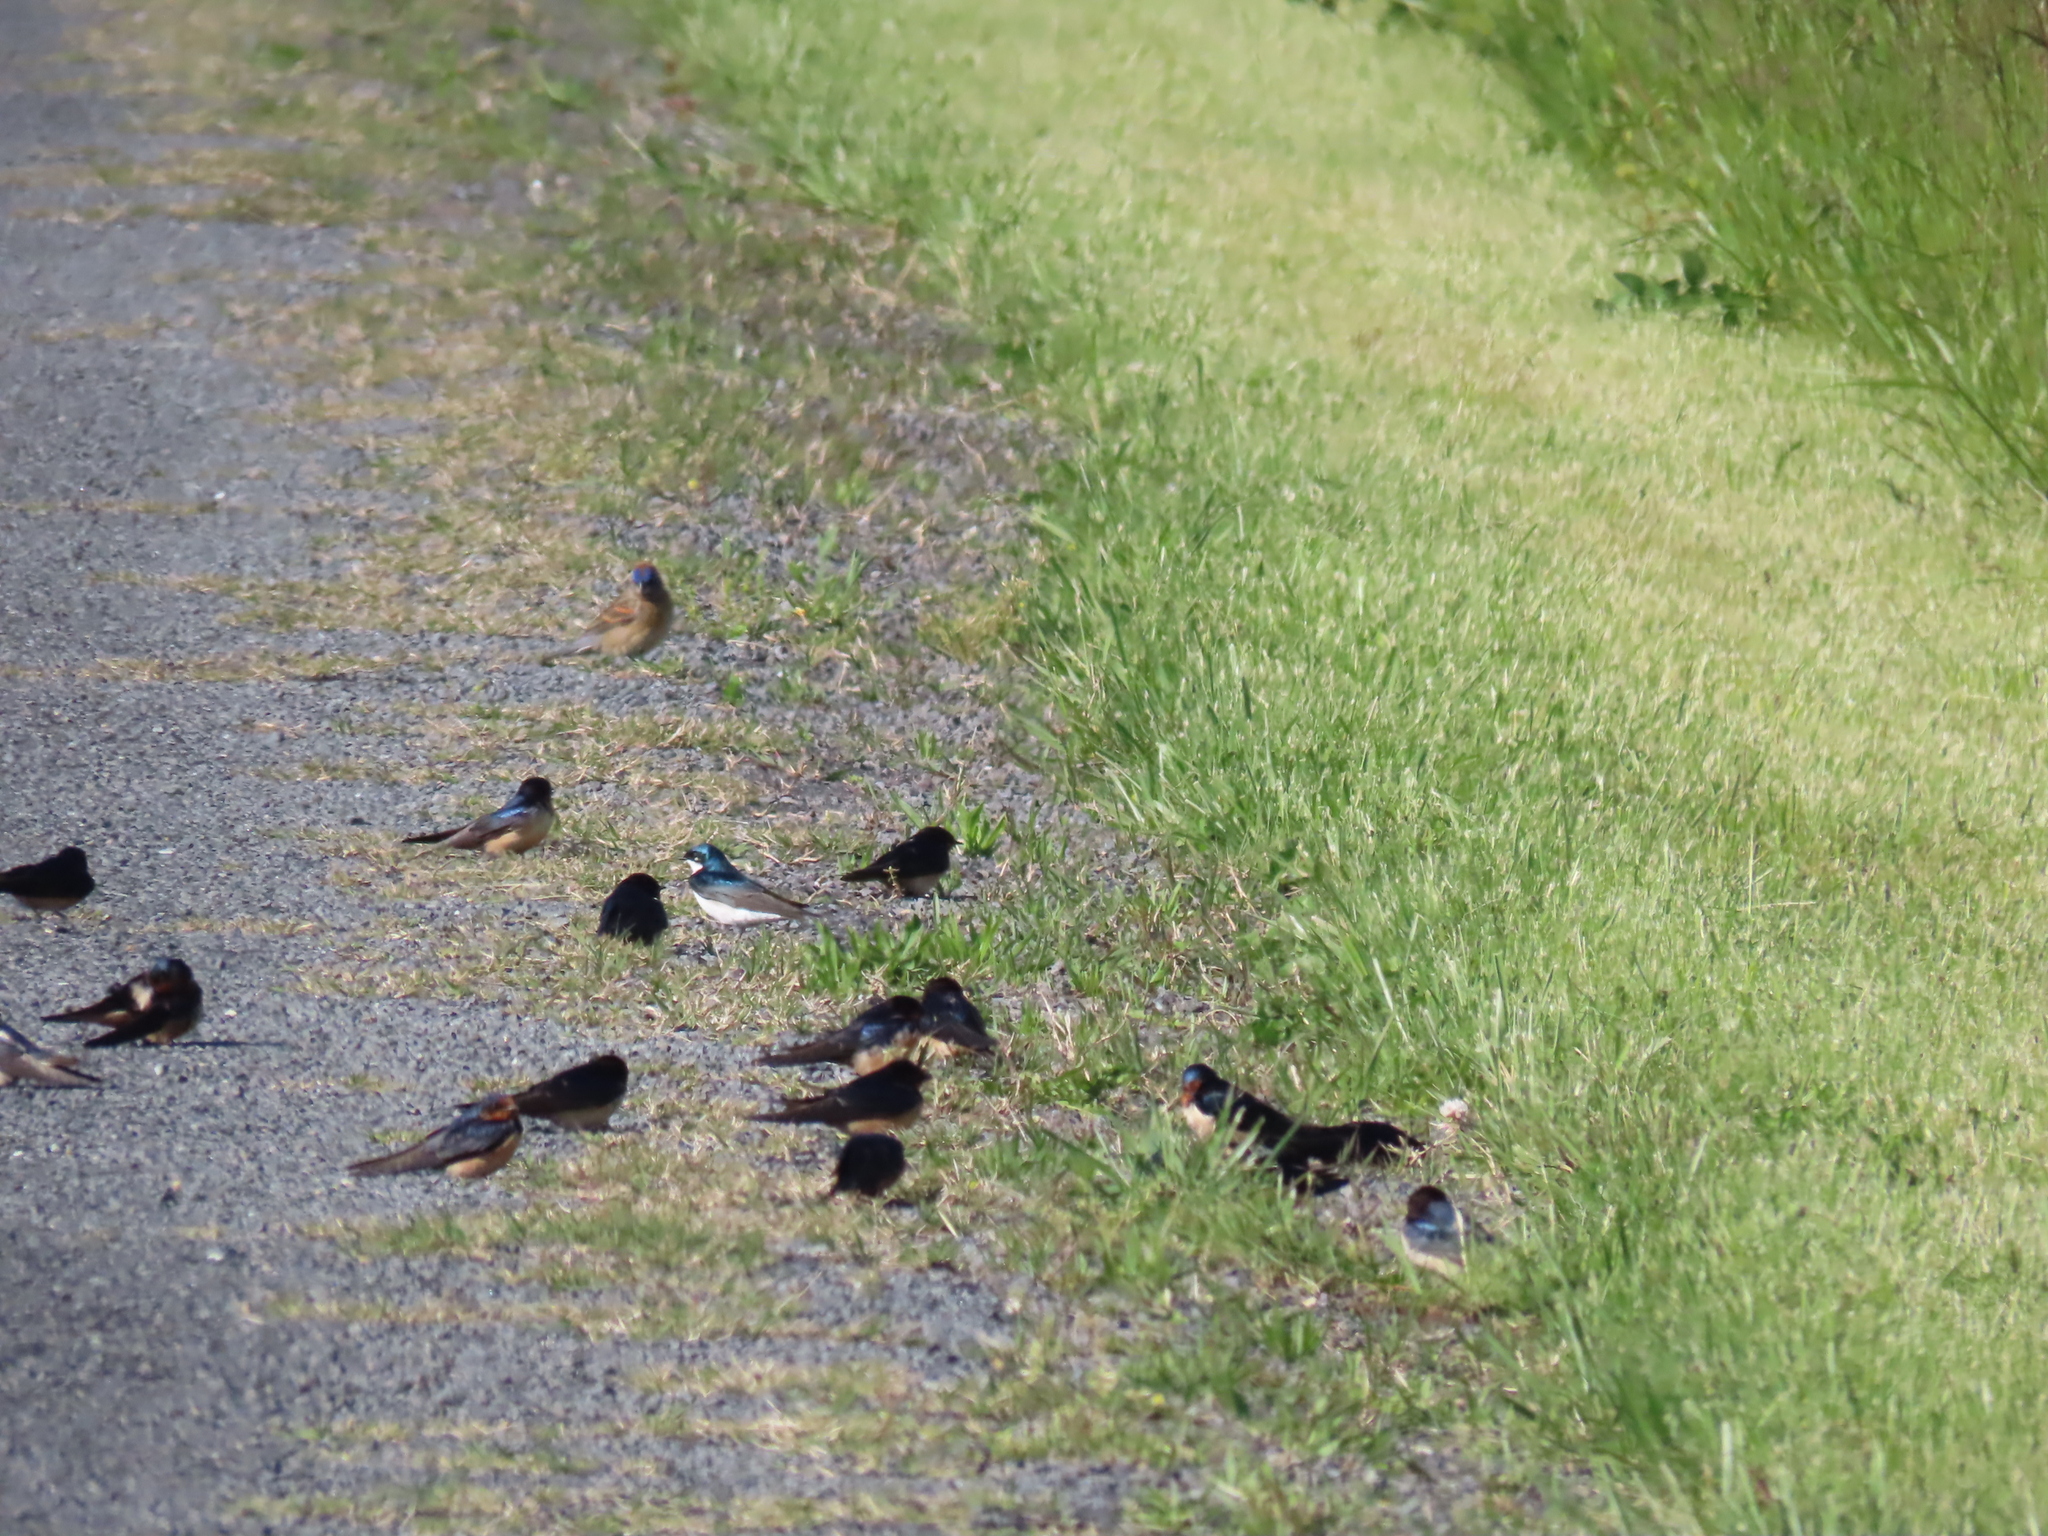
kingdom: Animalia
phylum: Chordata
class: Aves
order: Passeriformes
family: Hirundinidae
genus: Hirundo
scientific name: Hirundo rustica
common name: Barn swallow
